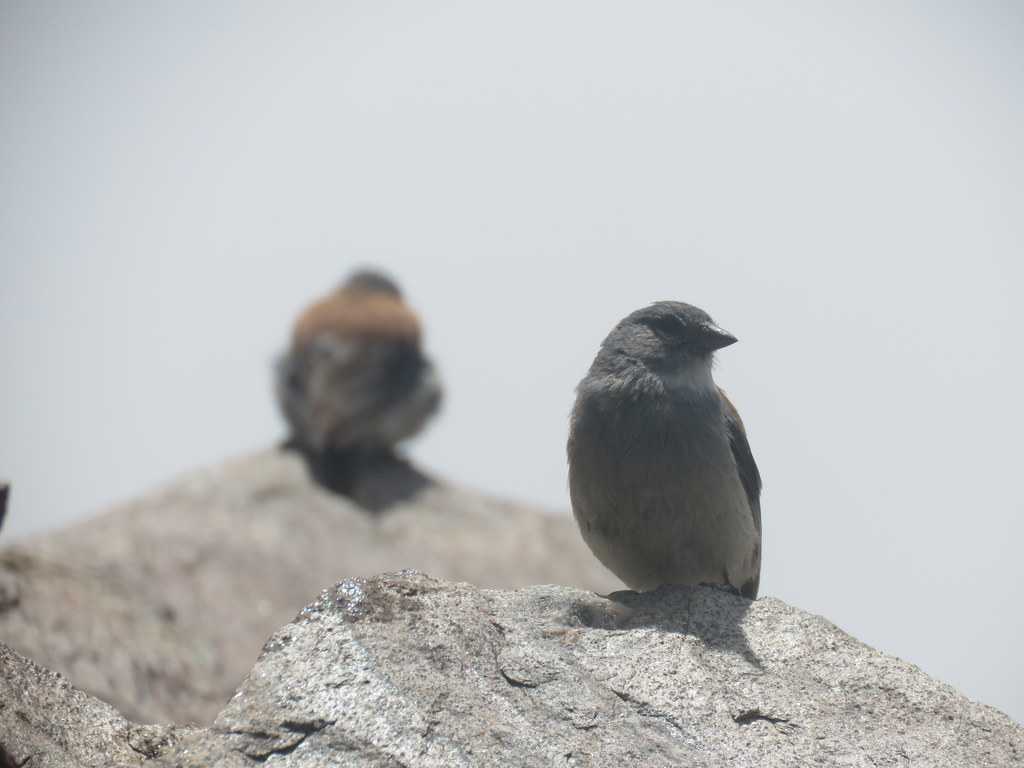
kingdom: Animalia
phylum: Chordata
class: Aves
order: Passeriformes
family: Thraupidae
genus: Idiopsar
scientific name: Idiopsar dorsalis
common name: Red-backed sierra finch
